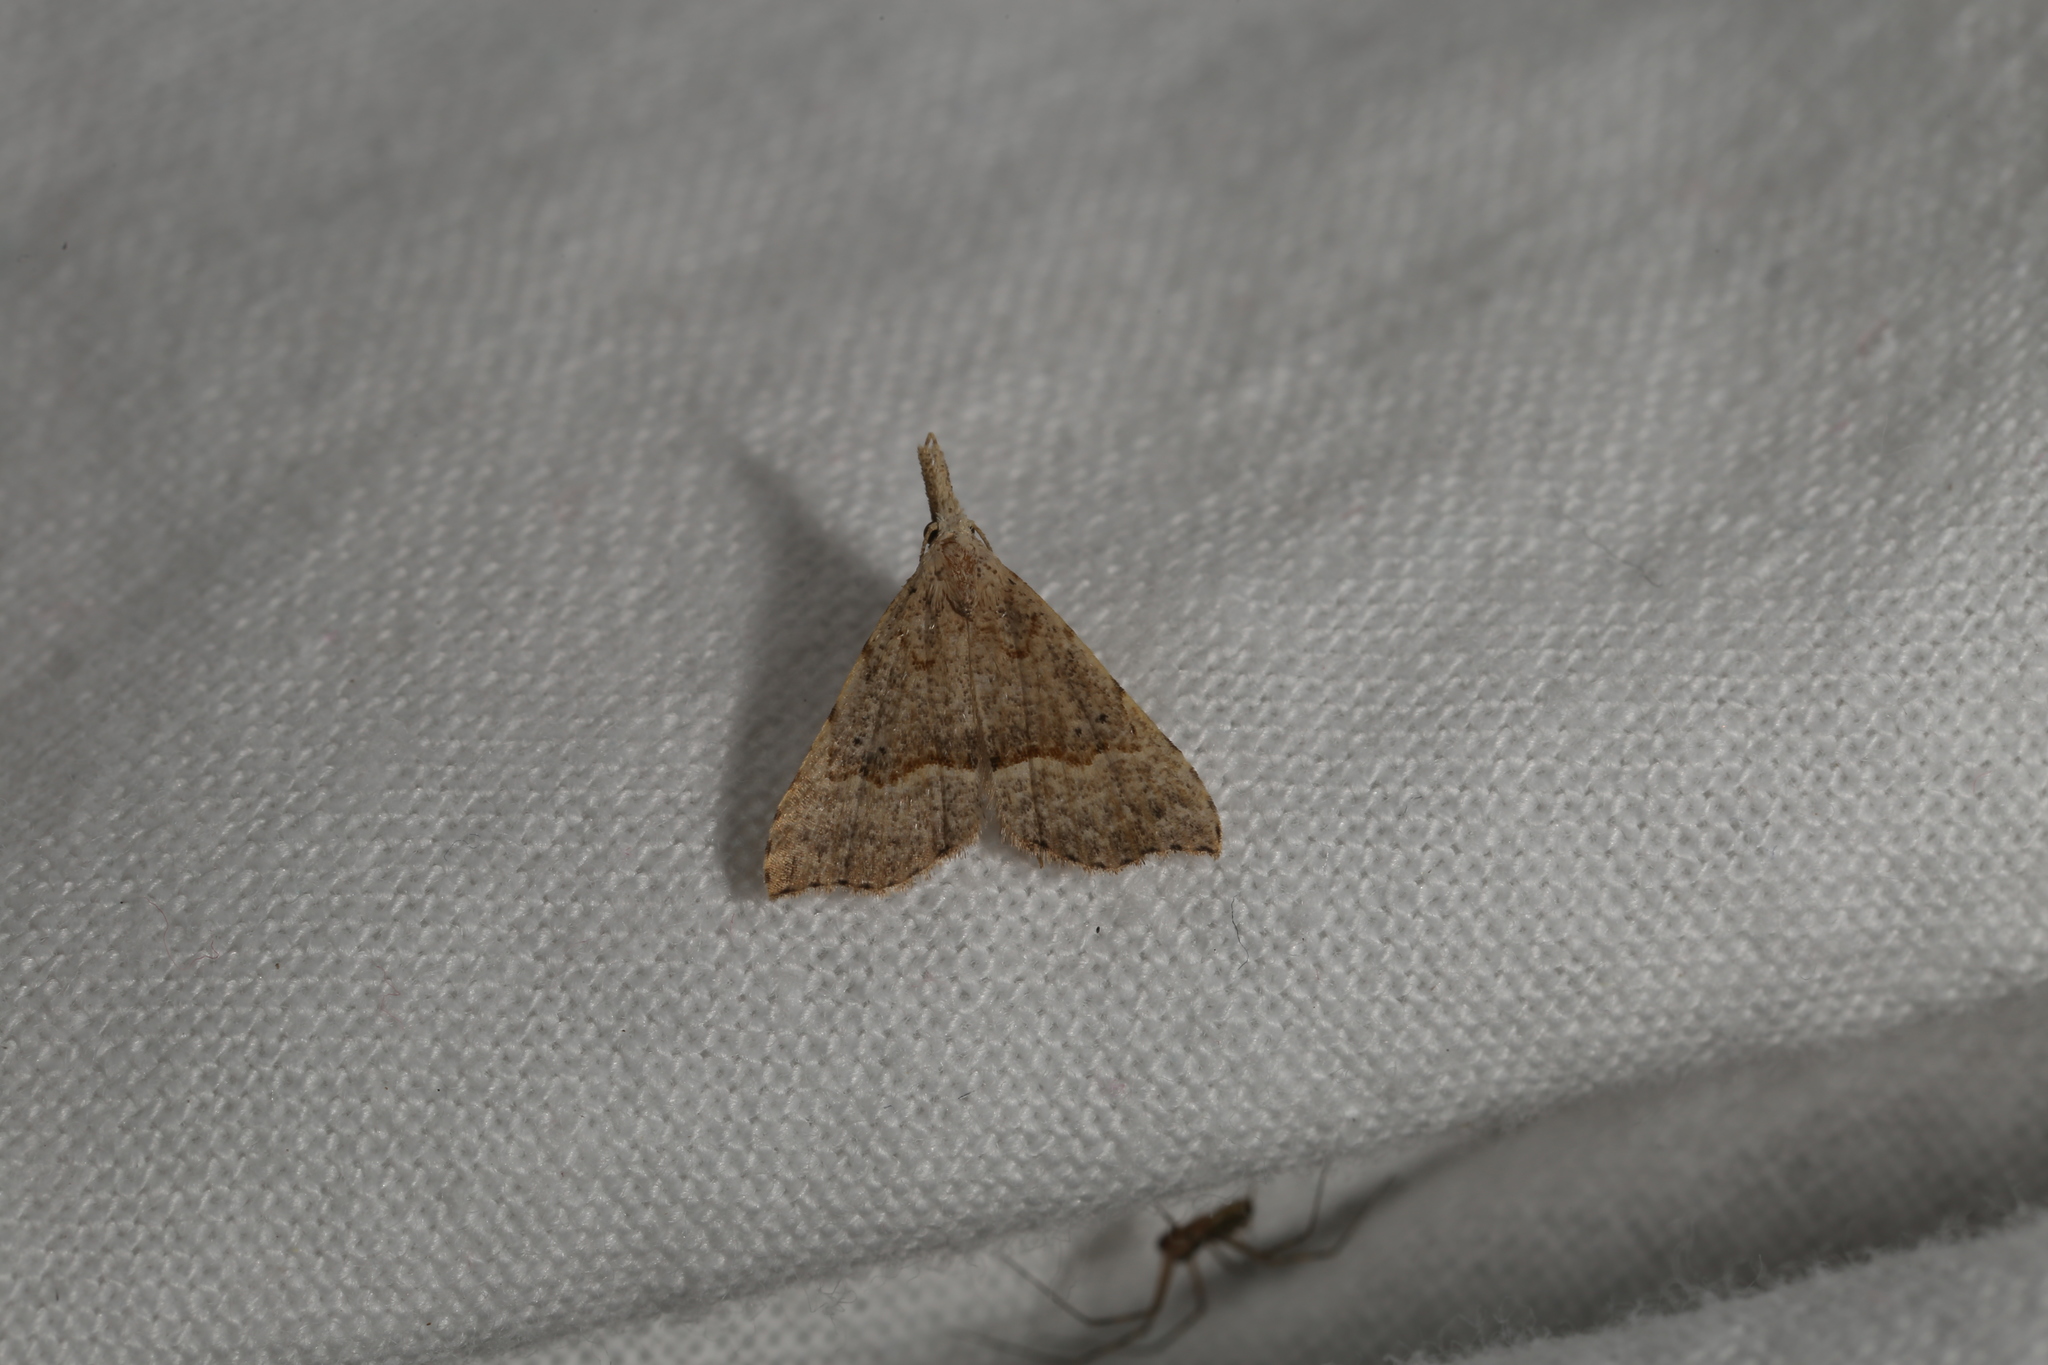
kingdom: Animalia
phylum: Arthropoda
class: Insecta
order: Lepidoptera
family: Erebidae
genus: Trigonistis
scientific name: Trigonistis asthenopa
